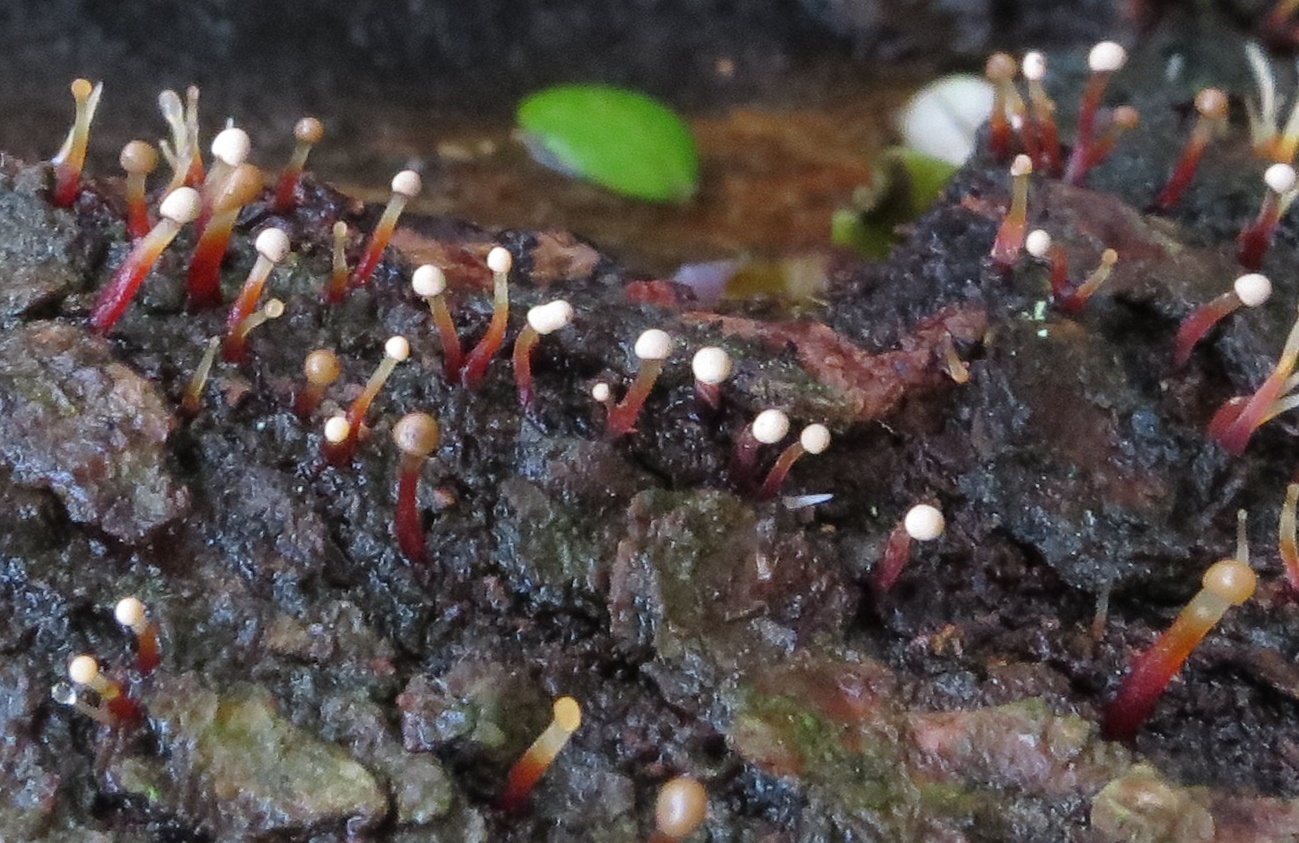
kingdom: Fungi
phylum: Ascomycota
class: Sordariomycetes
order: Hypocreales
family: Nectriaceae
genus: Murinectria
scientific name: Murinectria polythalama
